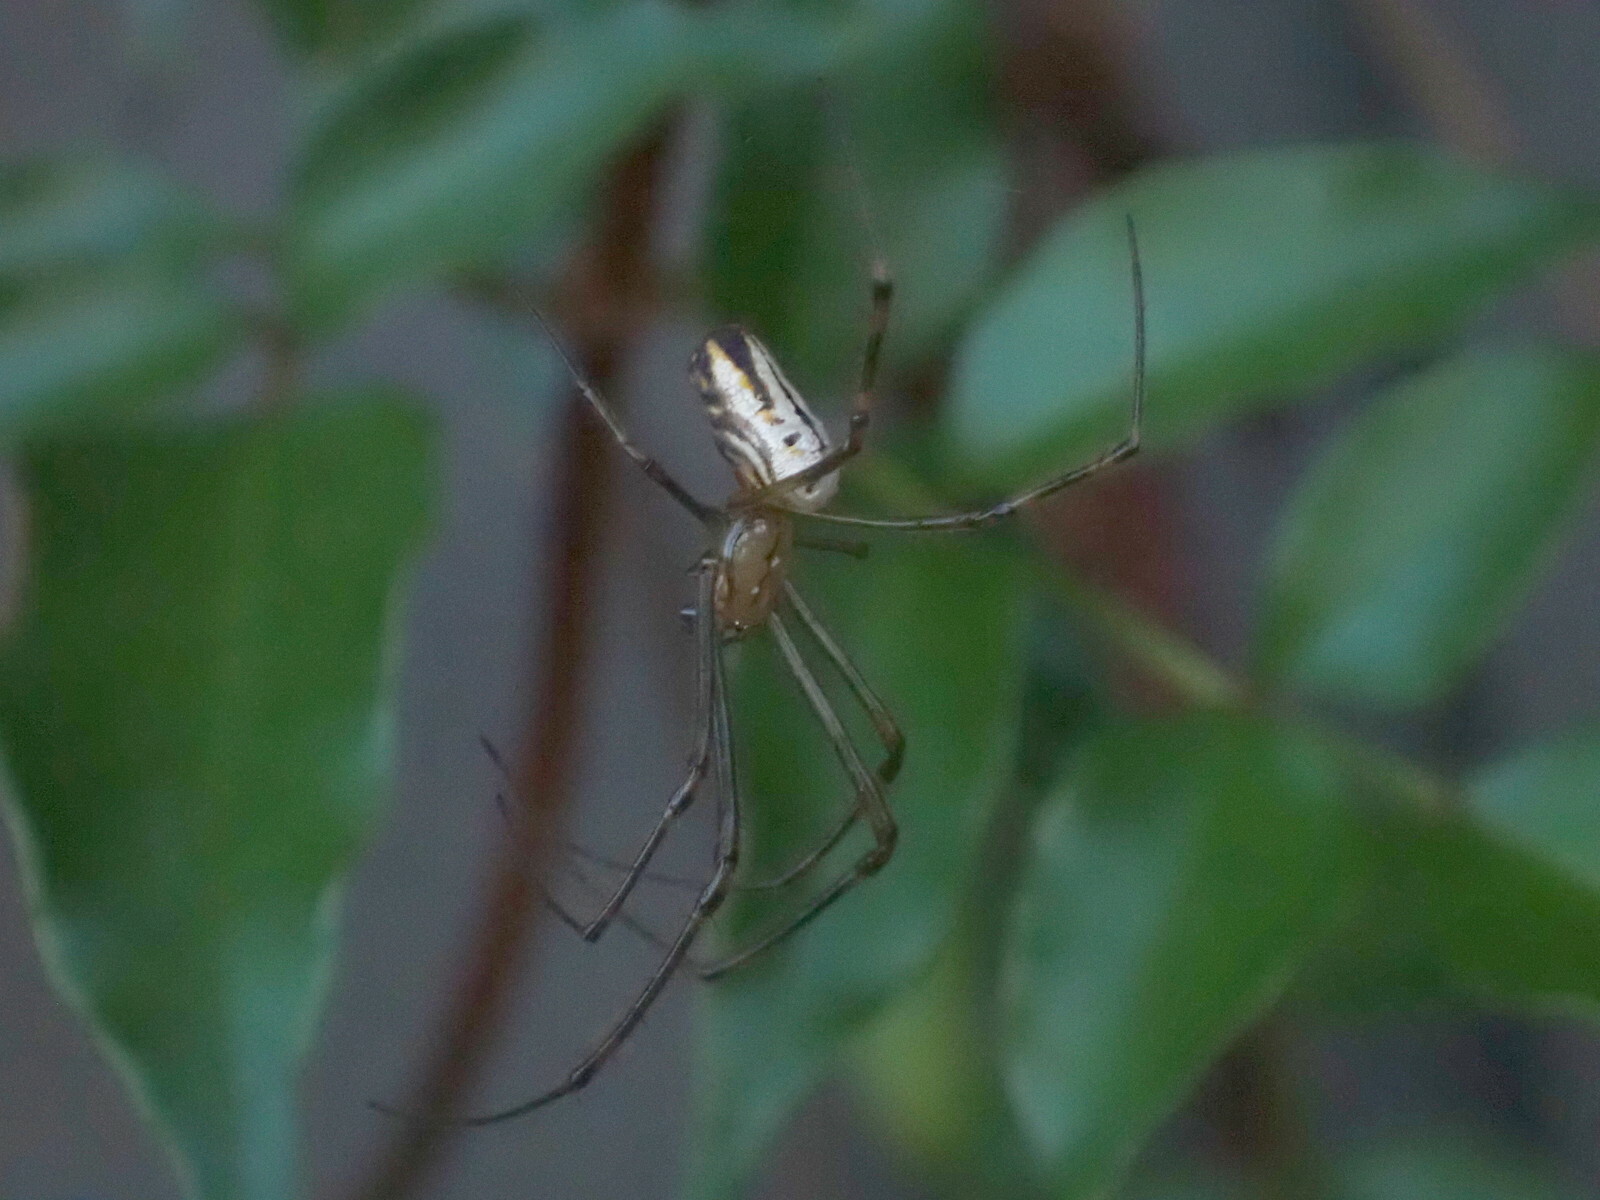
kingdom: Animalia
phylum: Arthropoda
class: Arachnida
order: Araneae
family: Tetragnathidae
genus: Leucauge
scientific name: Leucauge dromedaria
